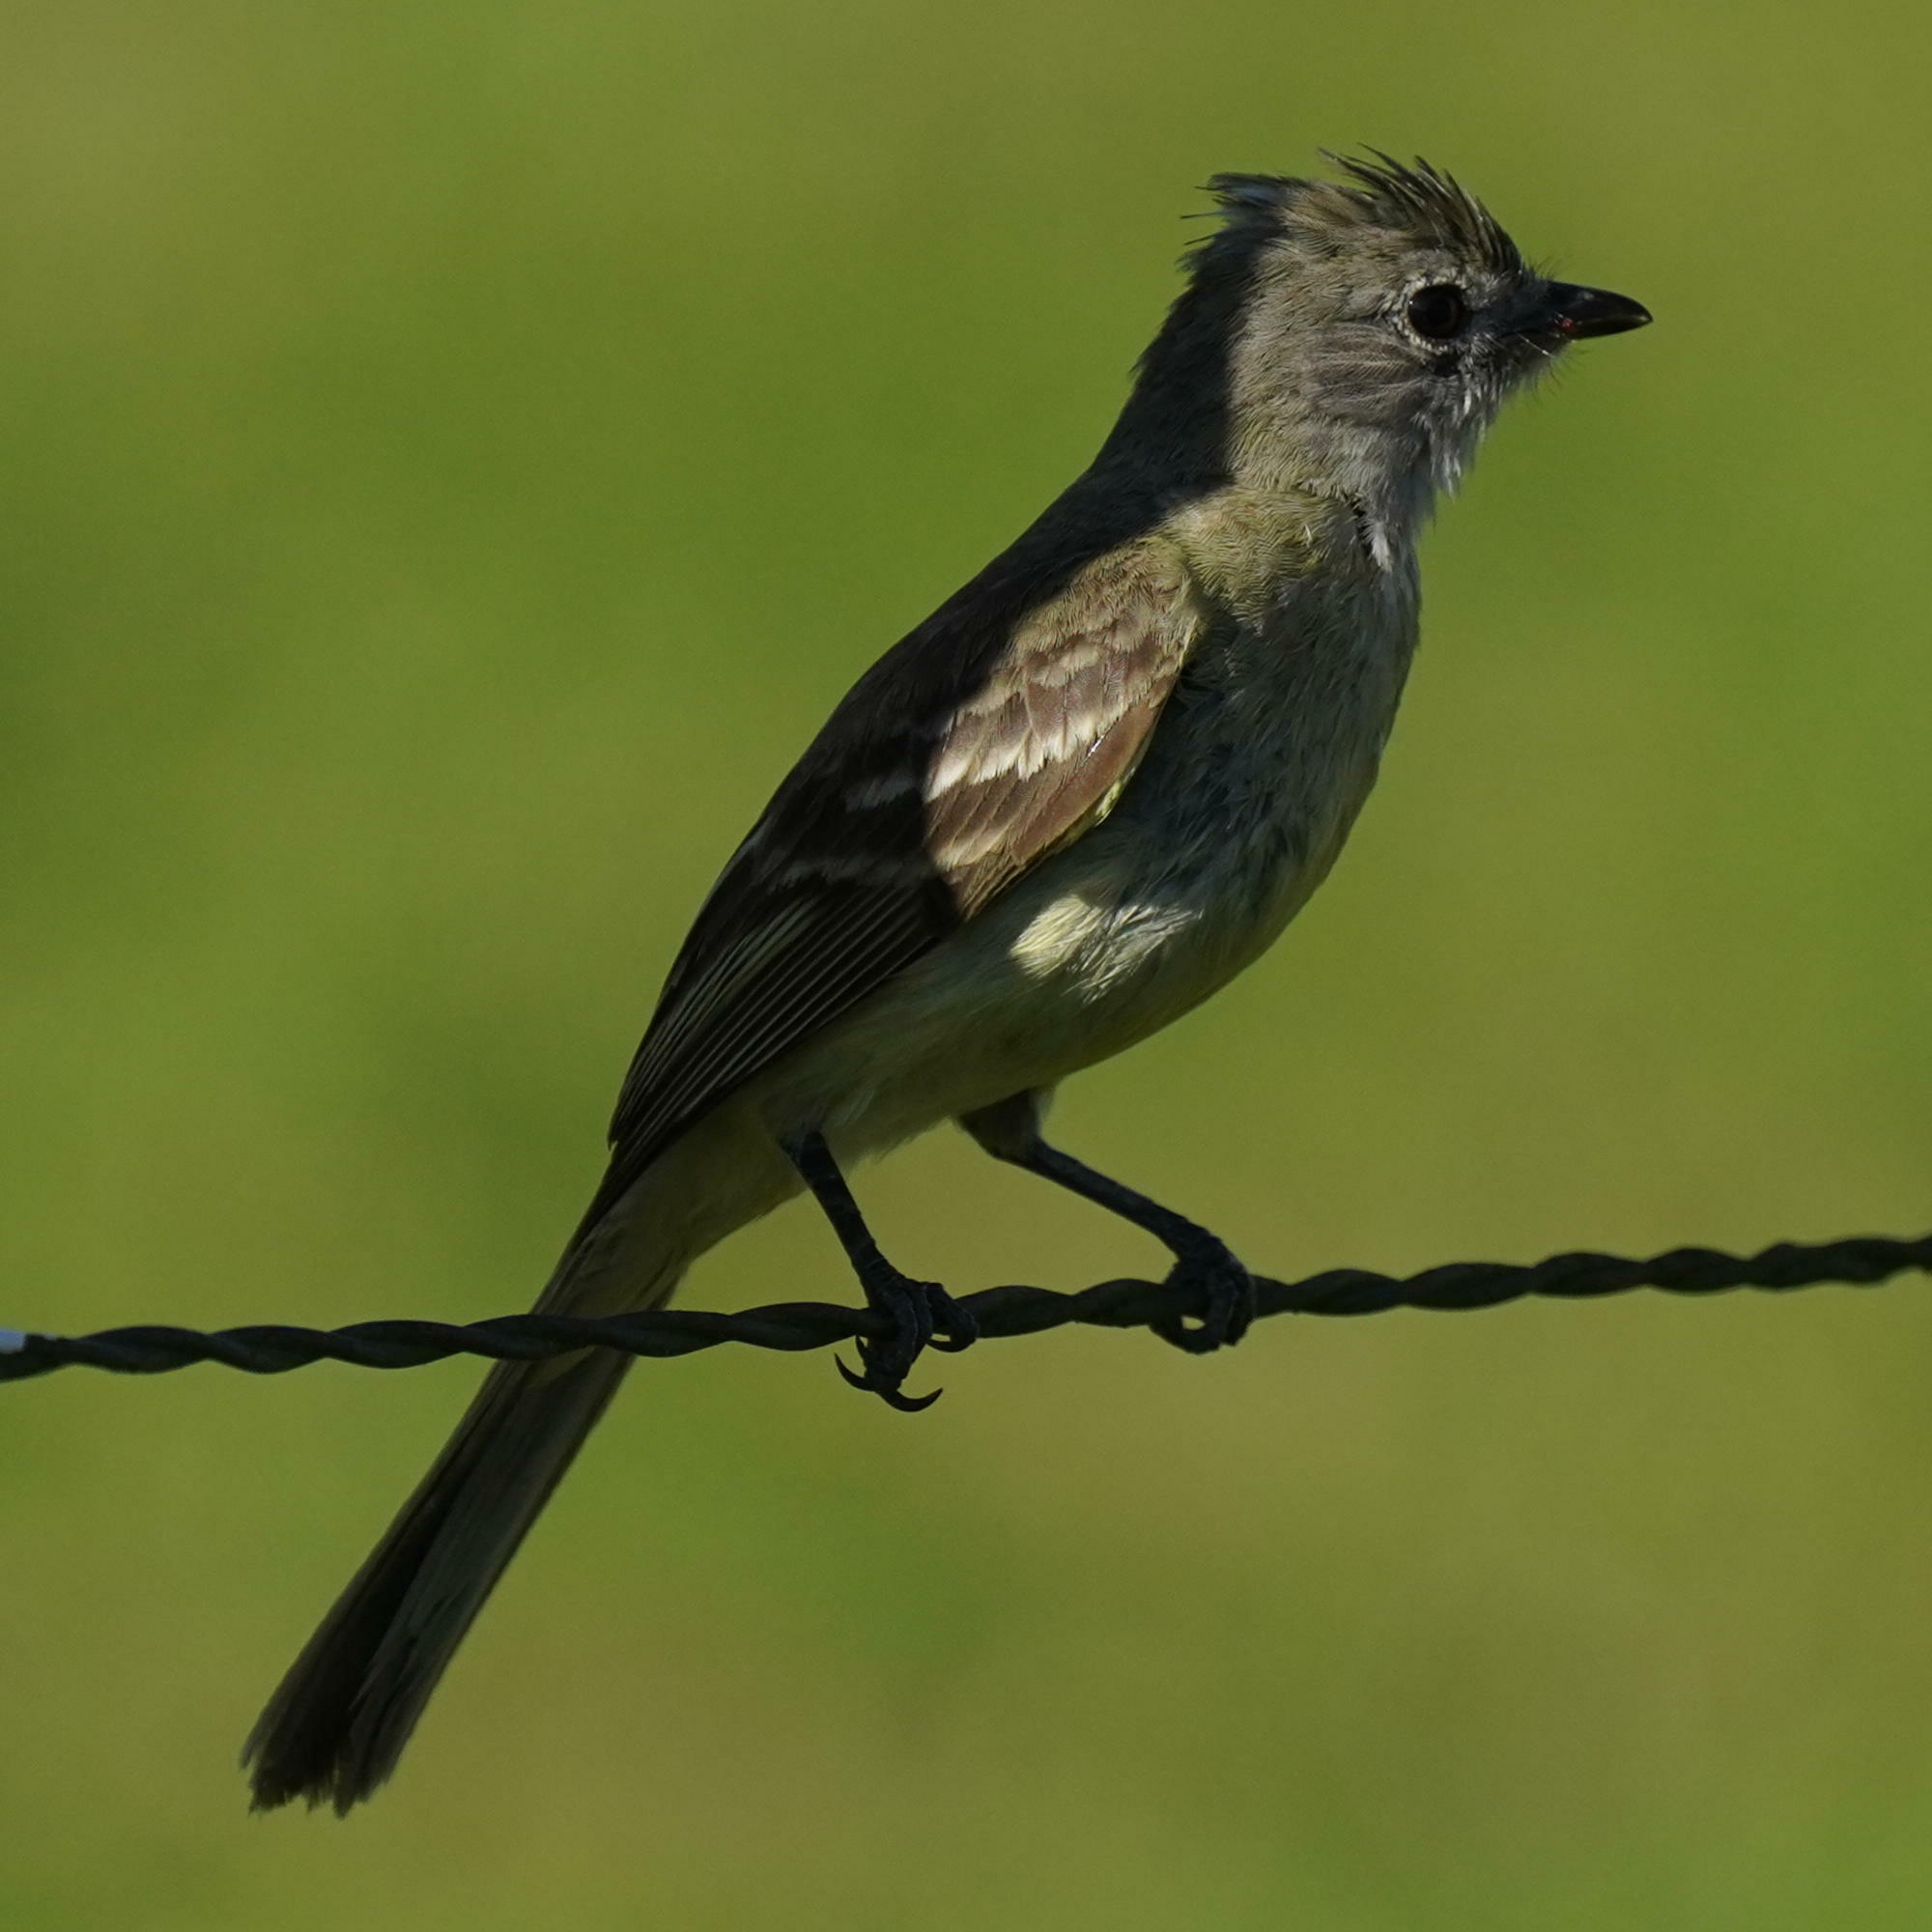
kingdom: Animalia
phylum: Chordata
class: Aves
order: Passeriformes
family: Tyrannidae
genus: Elaenia
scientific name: Elaenia flavogaster
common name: Yellow-bellied elaenia
